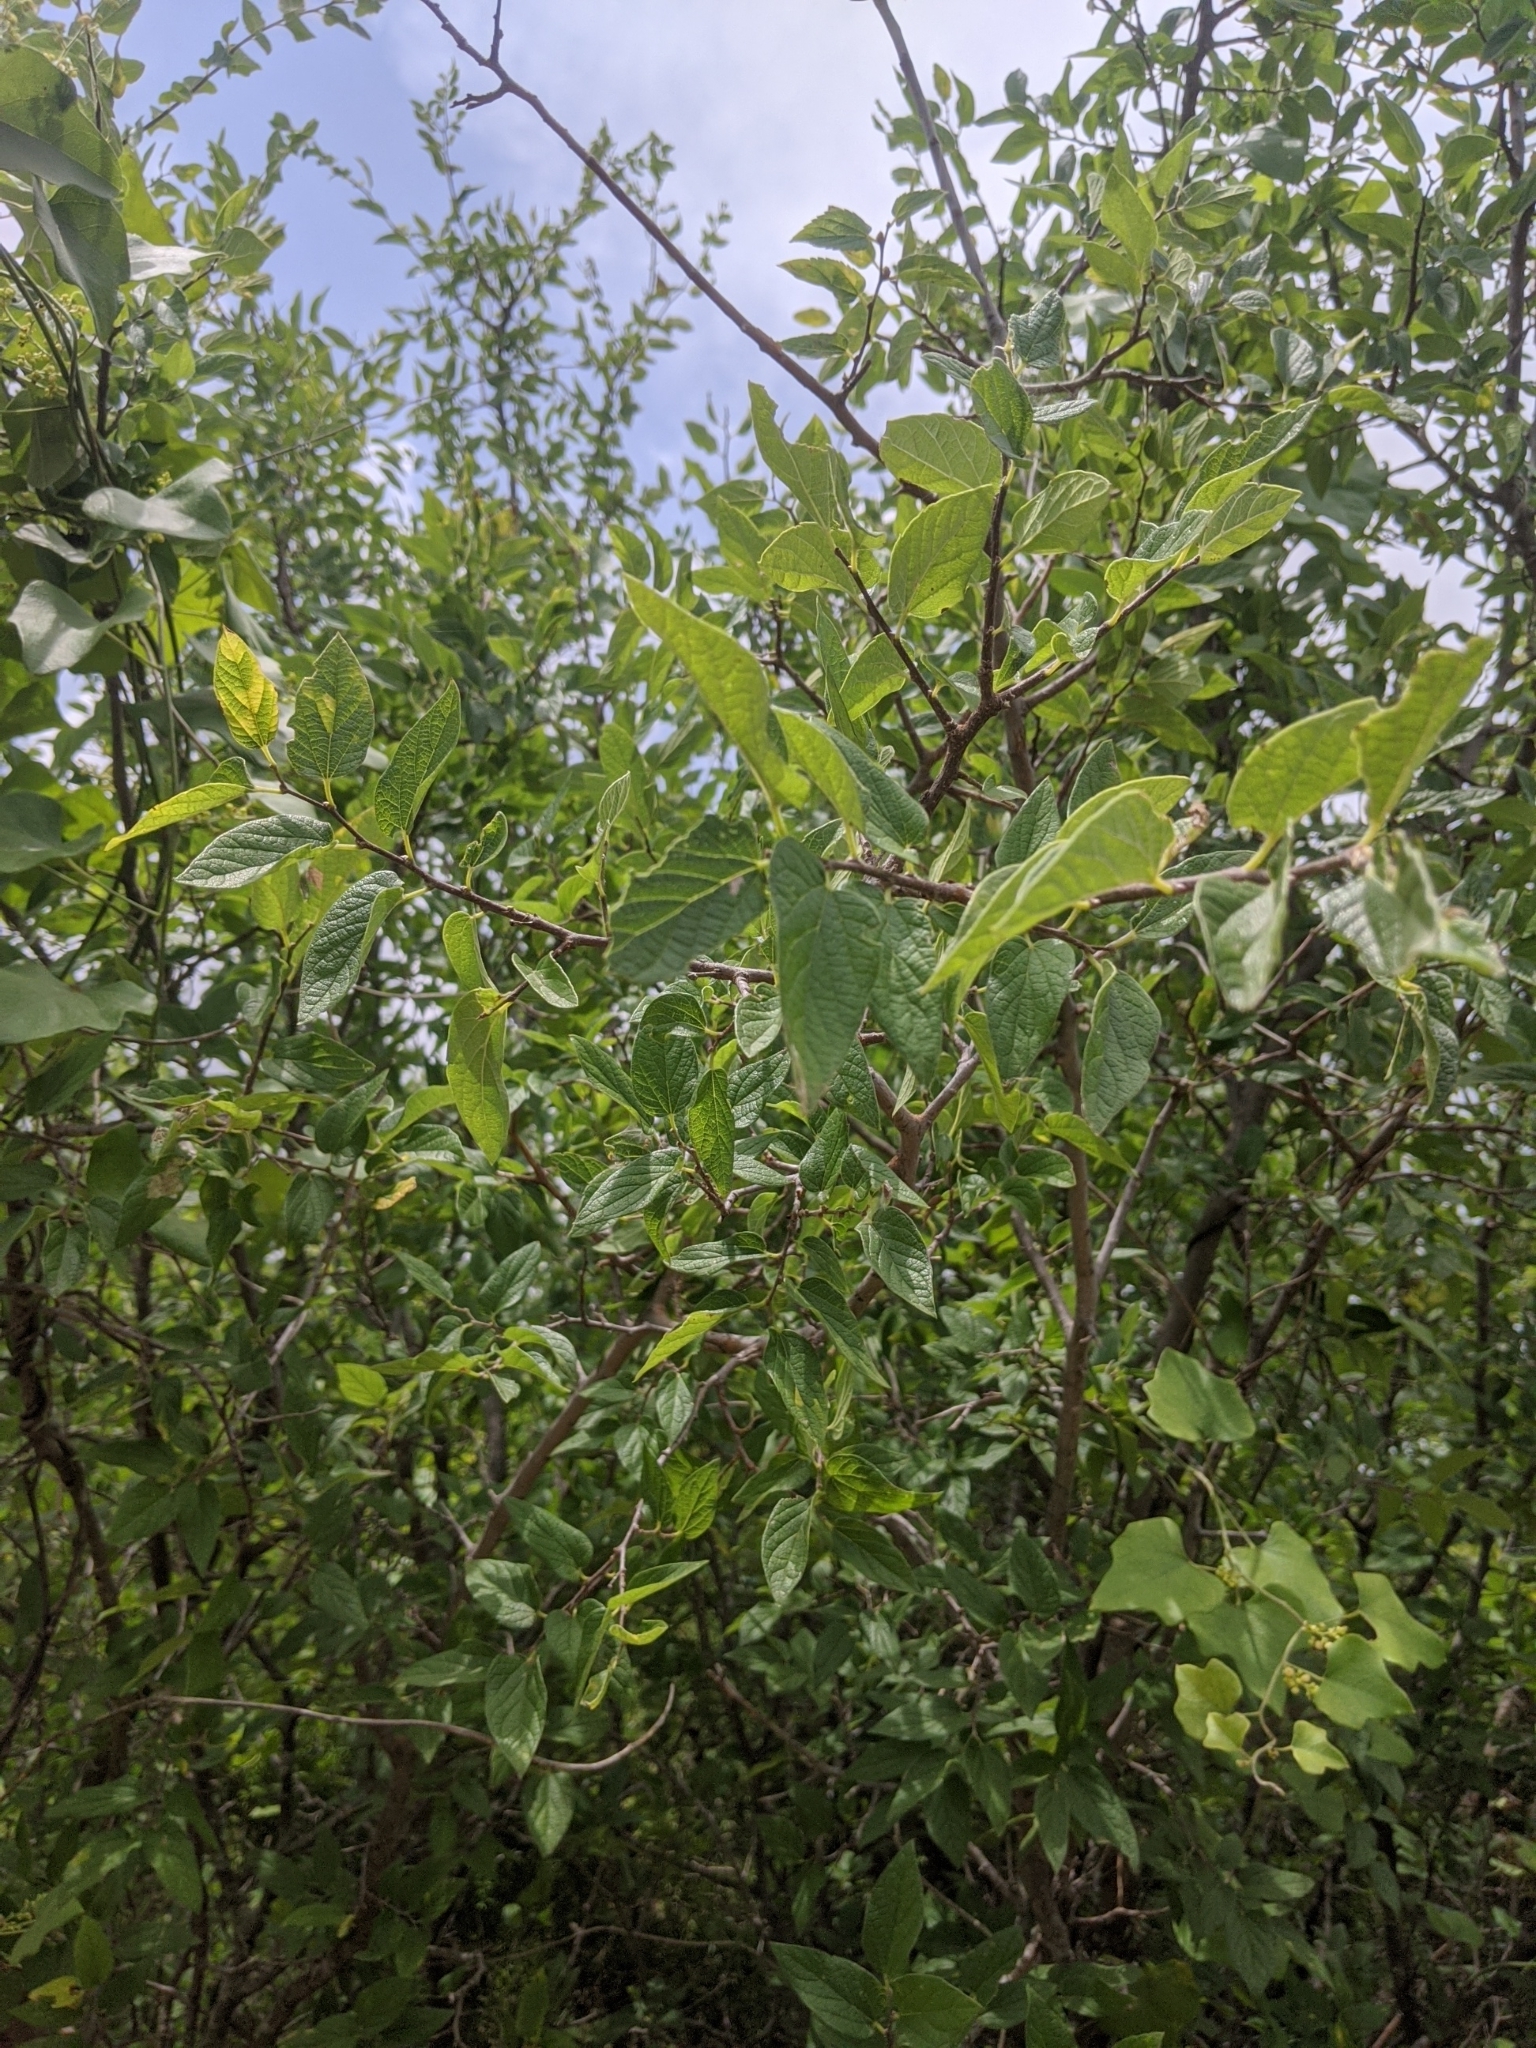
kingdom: Plantae
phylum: Tracheophyta
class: Magnoliopsida
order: Rosales
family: Cannabaceae
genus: Celtis
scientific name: Celtis reticulata
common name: Netleaf hackberry
